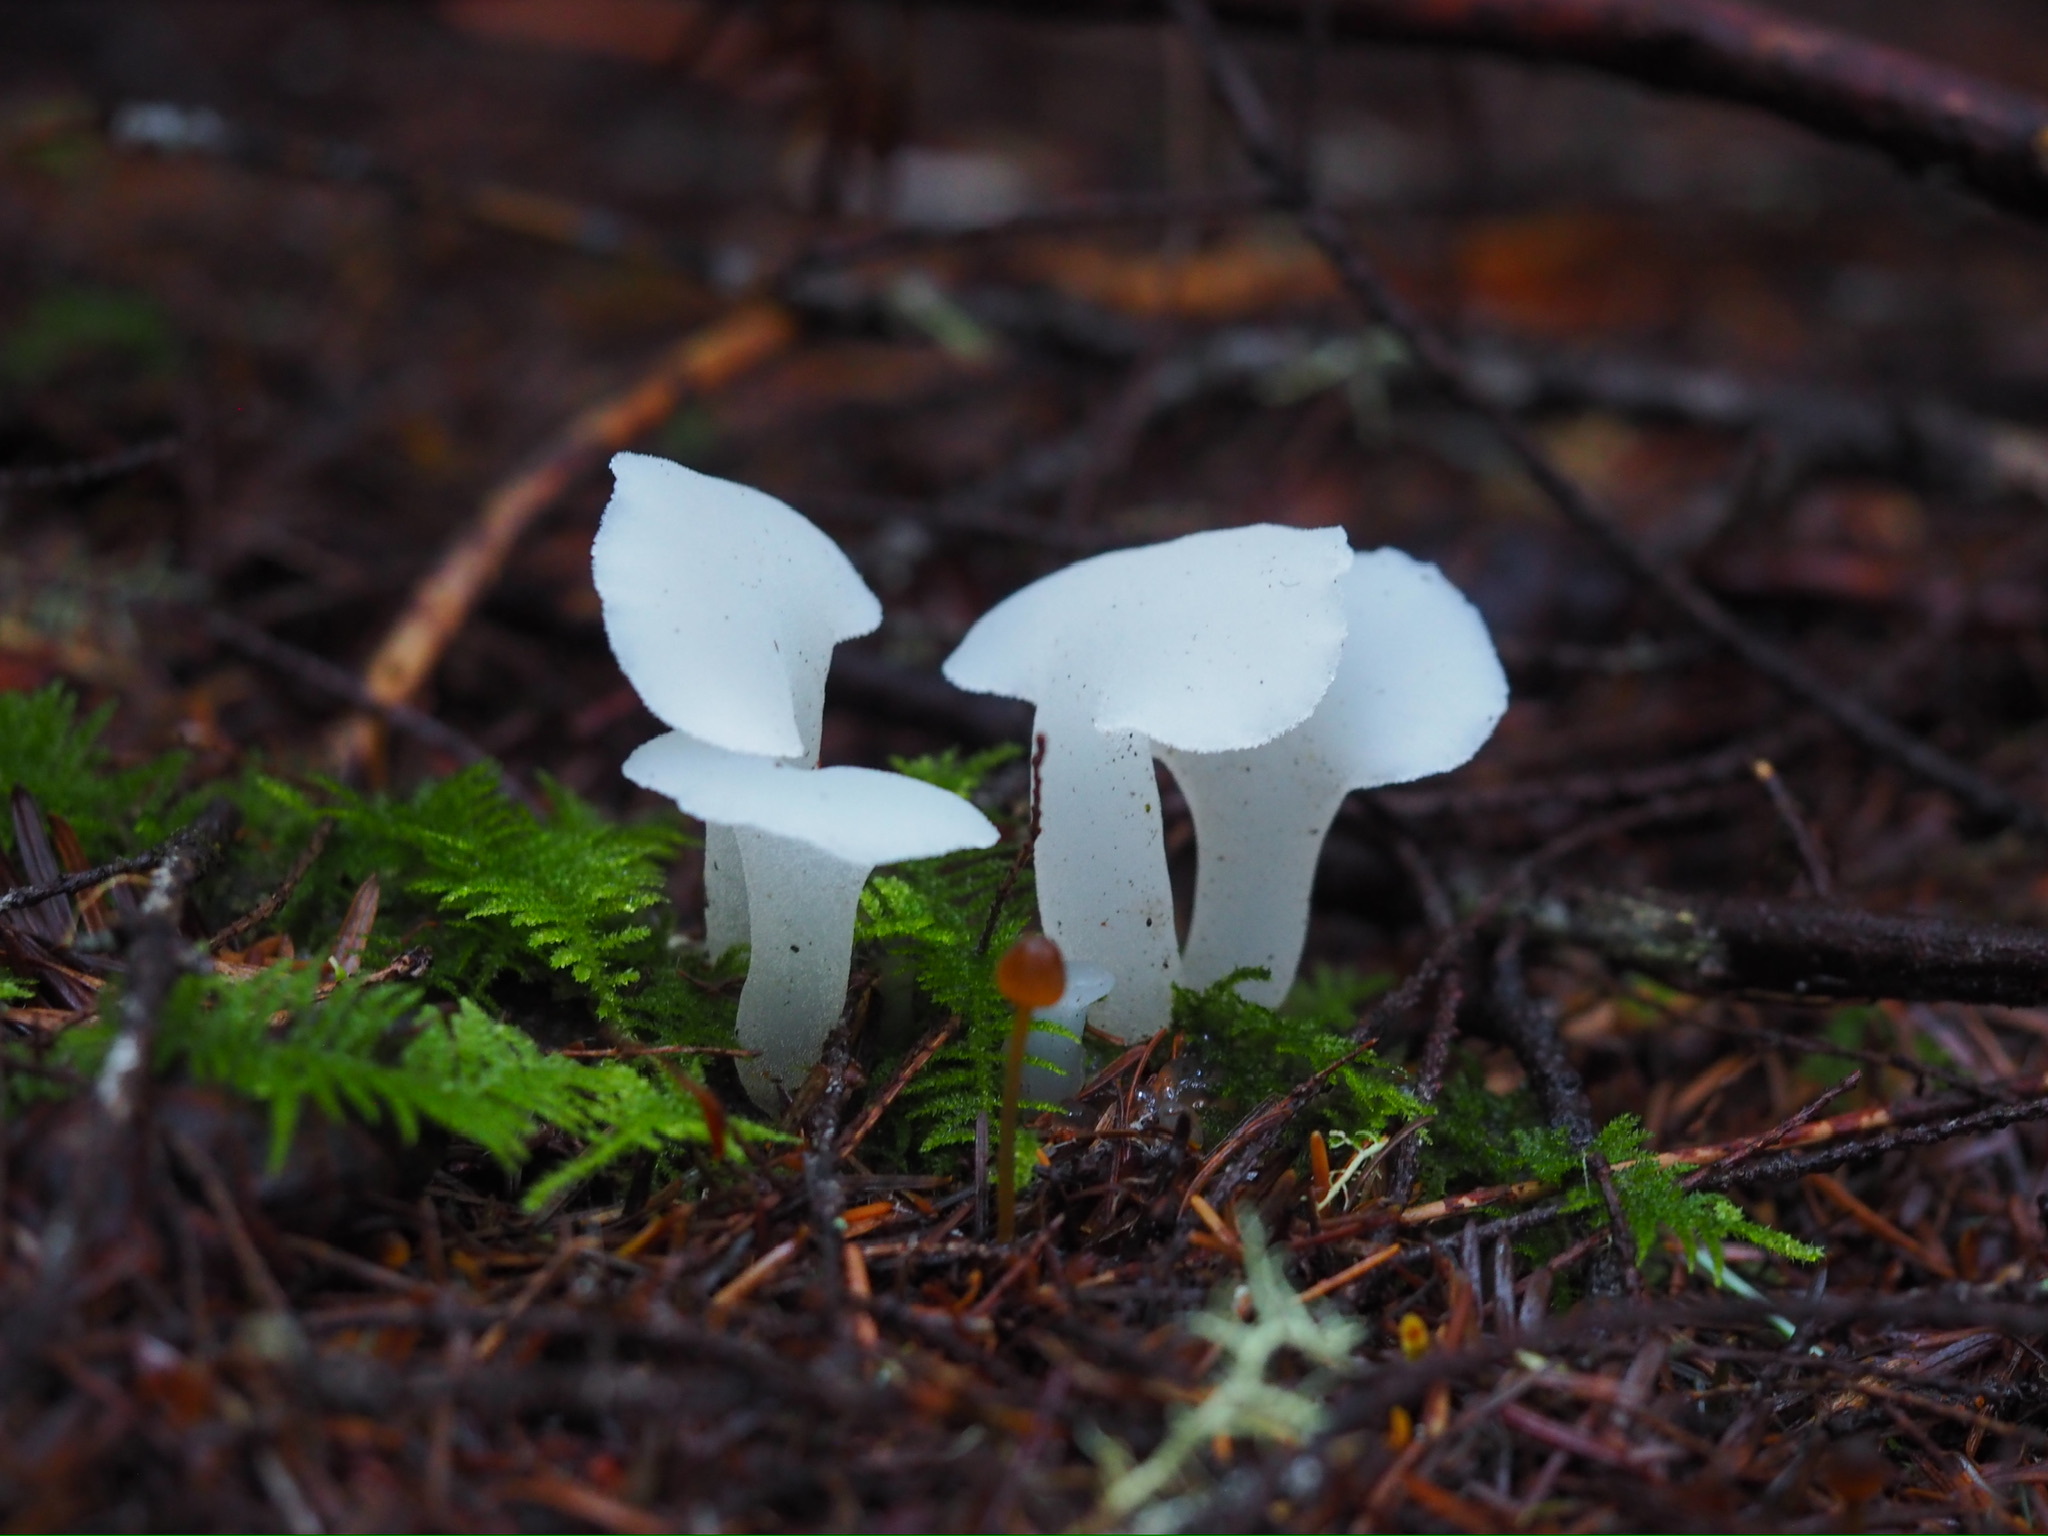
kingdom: Fungi
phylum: Basidiomycota
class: Agaricomycetes
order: Auriculariales
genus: Pseudohydnum
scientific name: Pseudohydnum gelatinosum
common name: Jelly tongue
